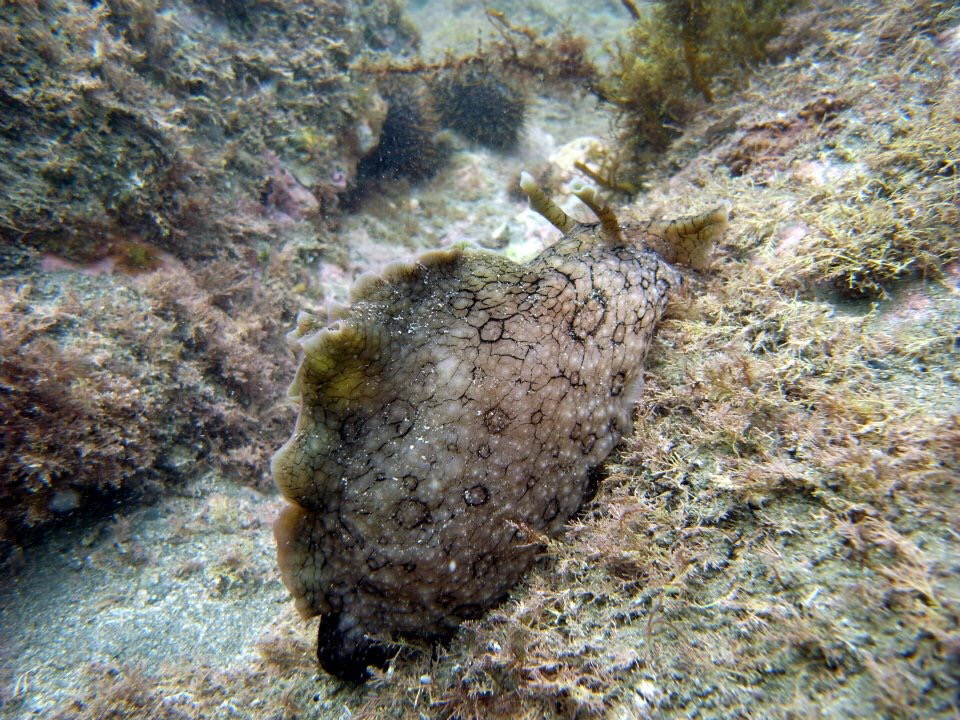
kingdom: Animalia
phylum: Mollusca
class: Gastropoda
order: Aplysiida
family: Aplysiidae
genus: Aplysia
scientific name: Aplysia argus
